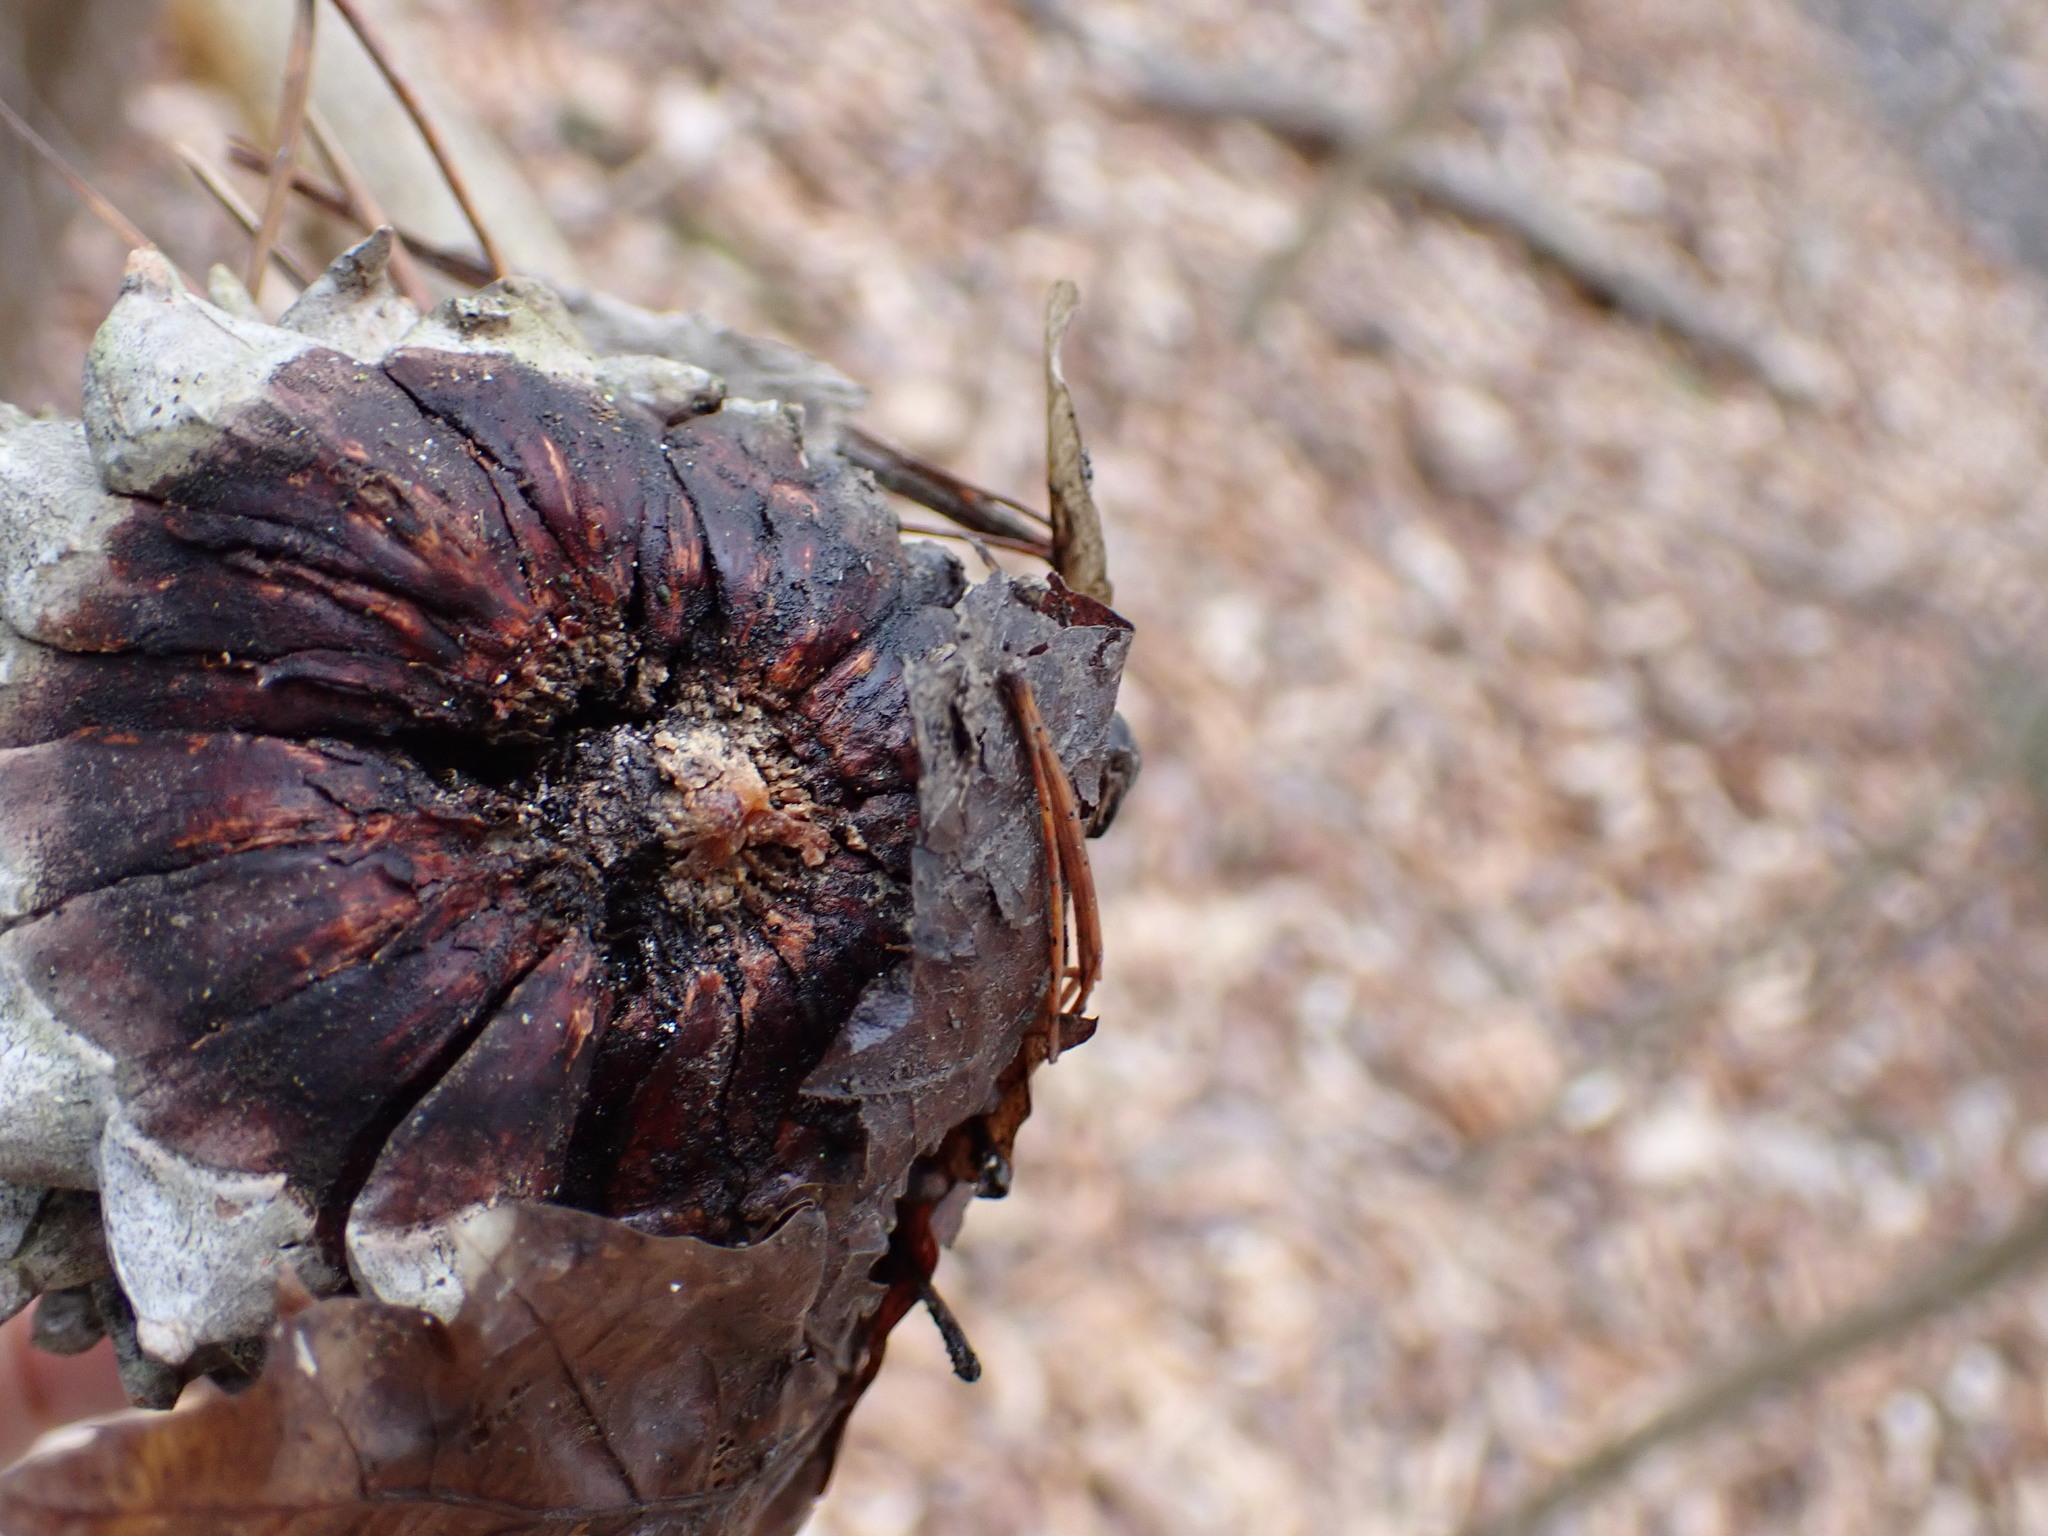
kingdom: Plantae
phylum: Tracheophyta
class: Pinopsida
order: Pinales
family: Pinaceae
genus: Pinus
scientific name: Pinus pungens
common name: Hickory pine
